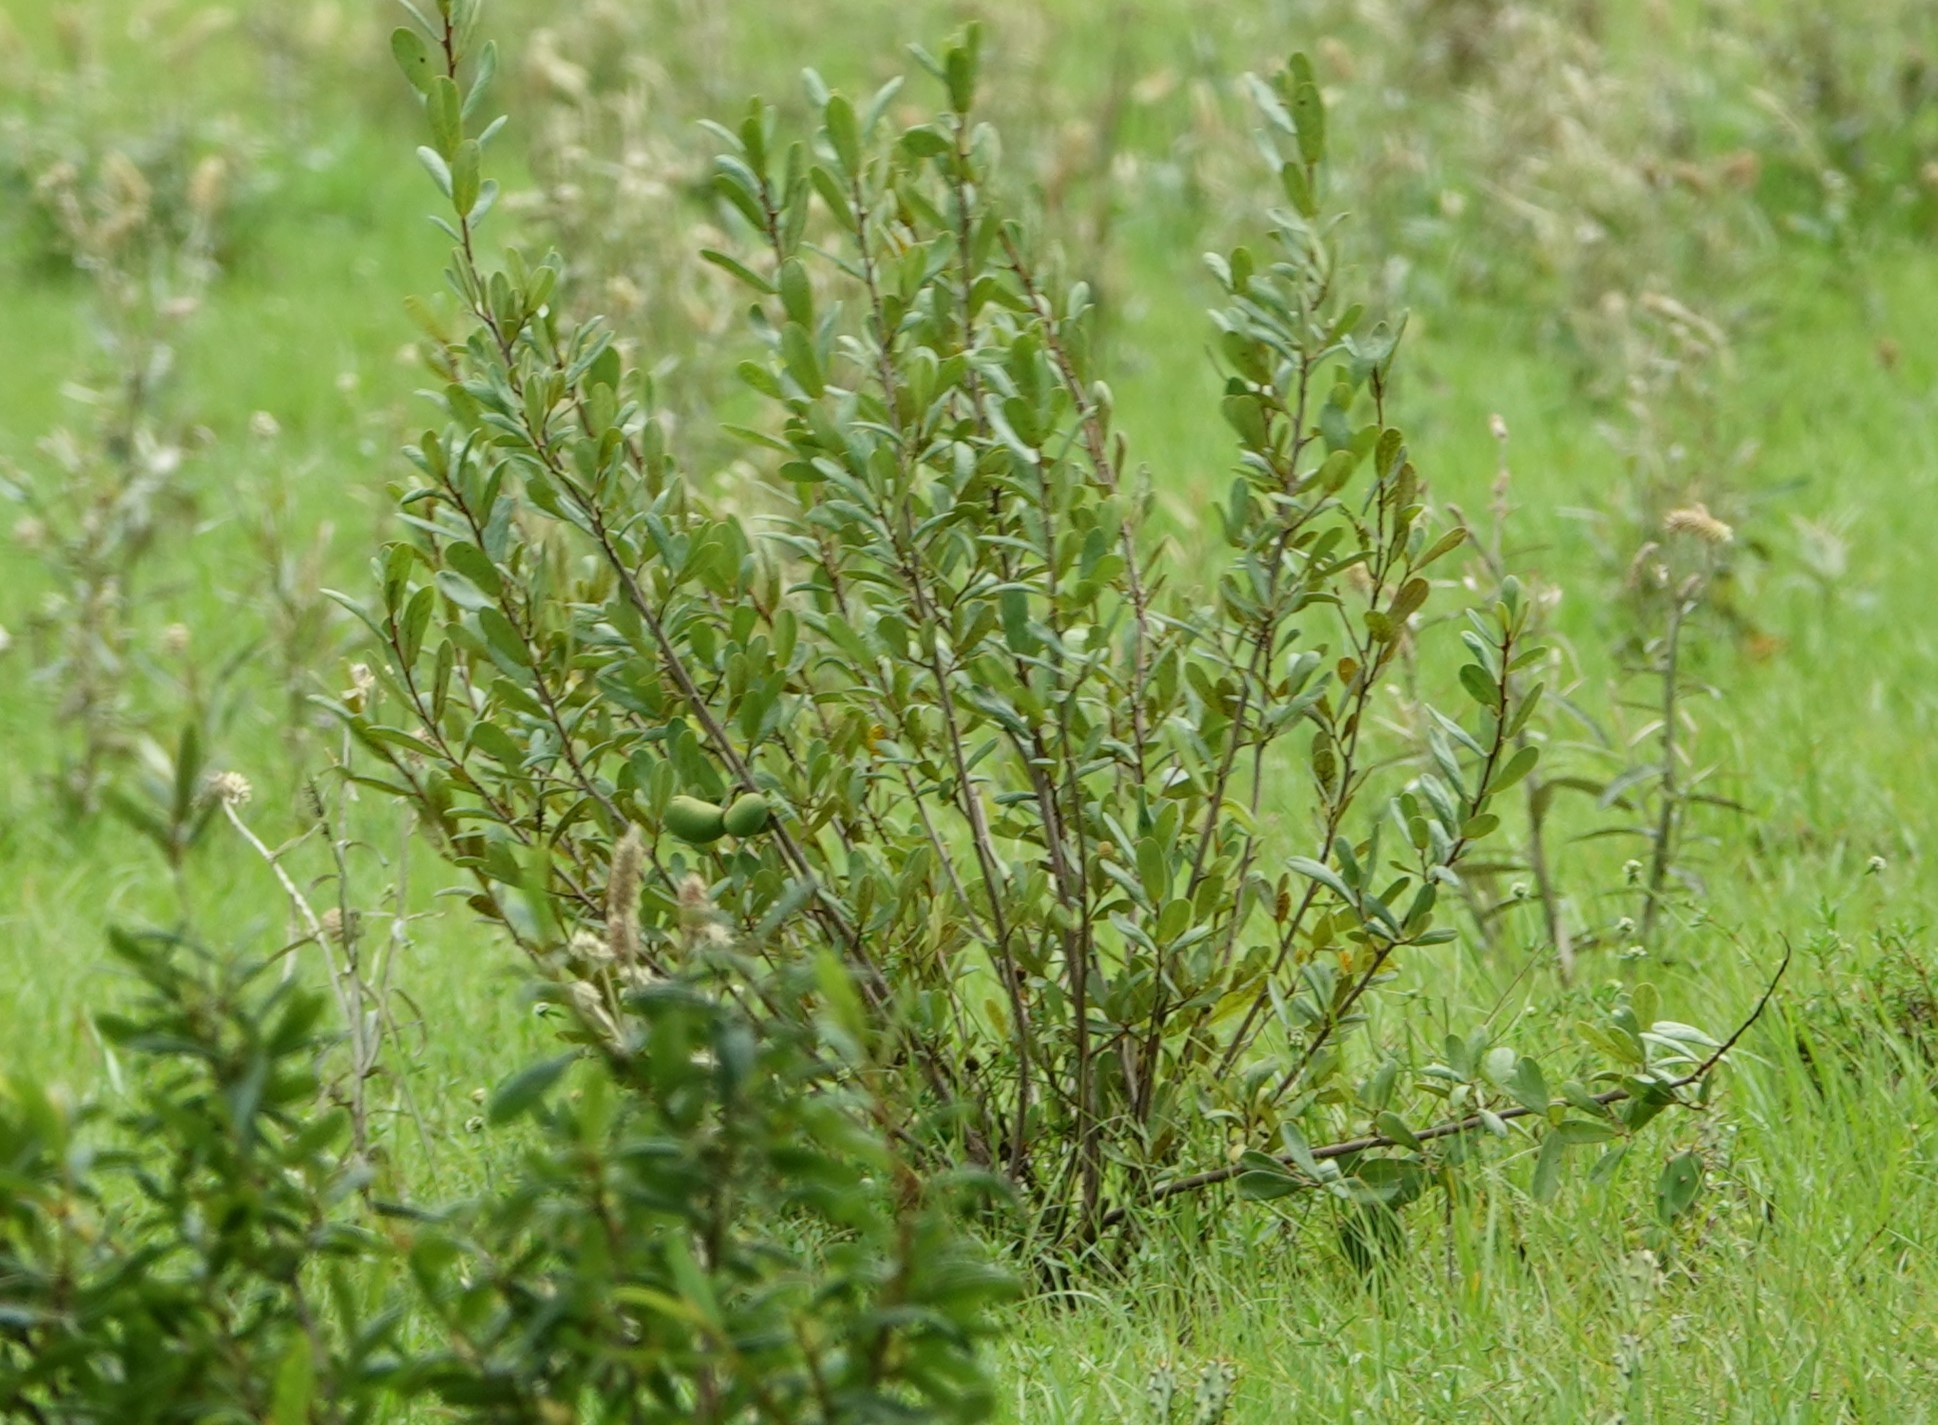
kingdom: Plantae
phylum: Tracheophyta
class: Magnoliopsida
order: Magnoliales
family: Annonaceae
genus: Asimina
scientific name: Asimina reticulata
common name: Flag pawpaw
